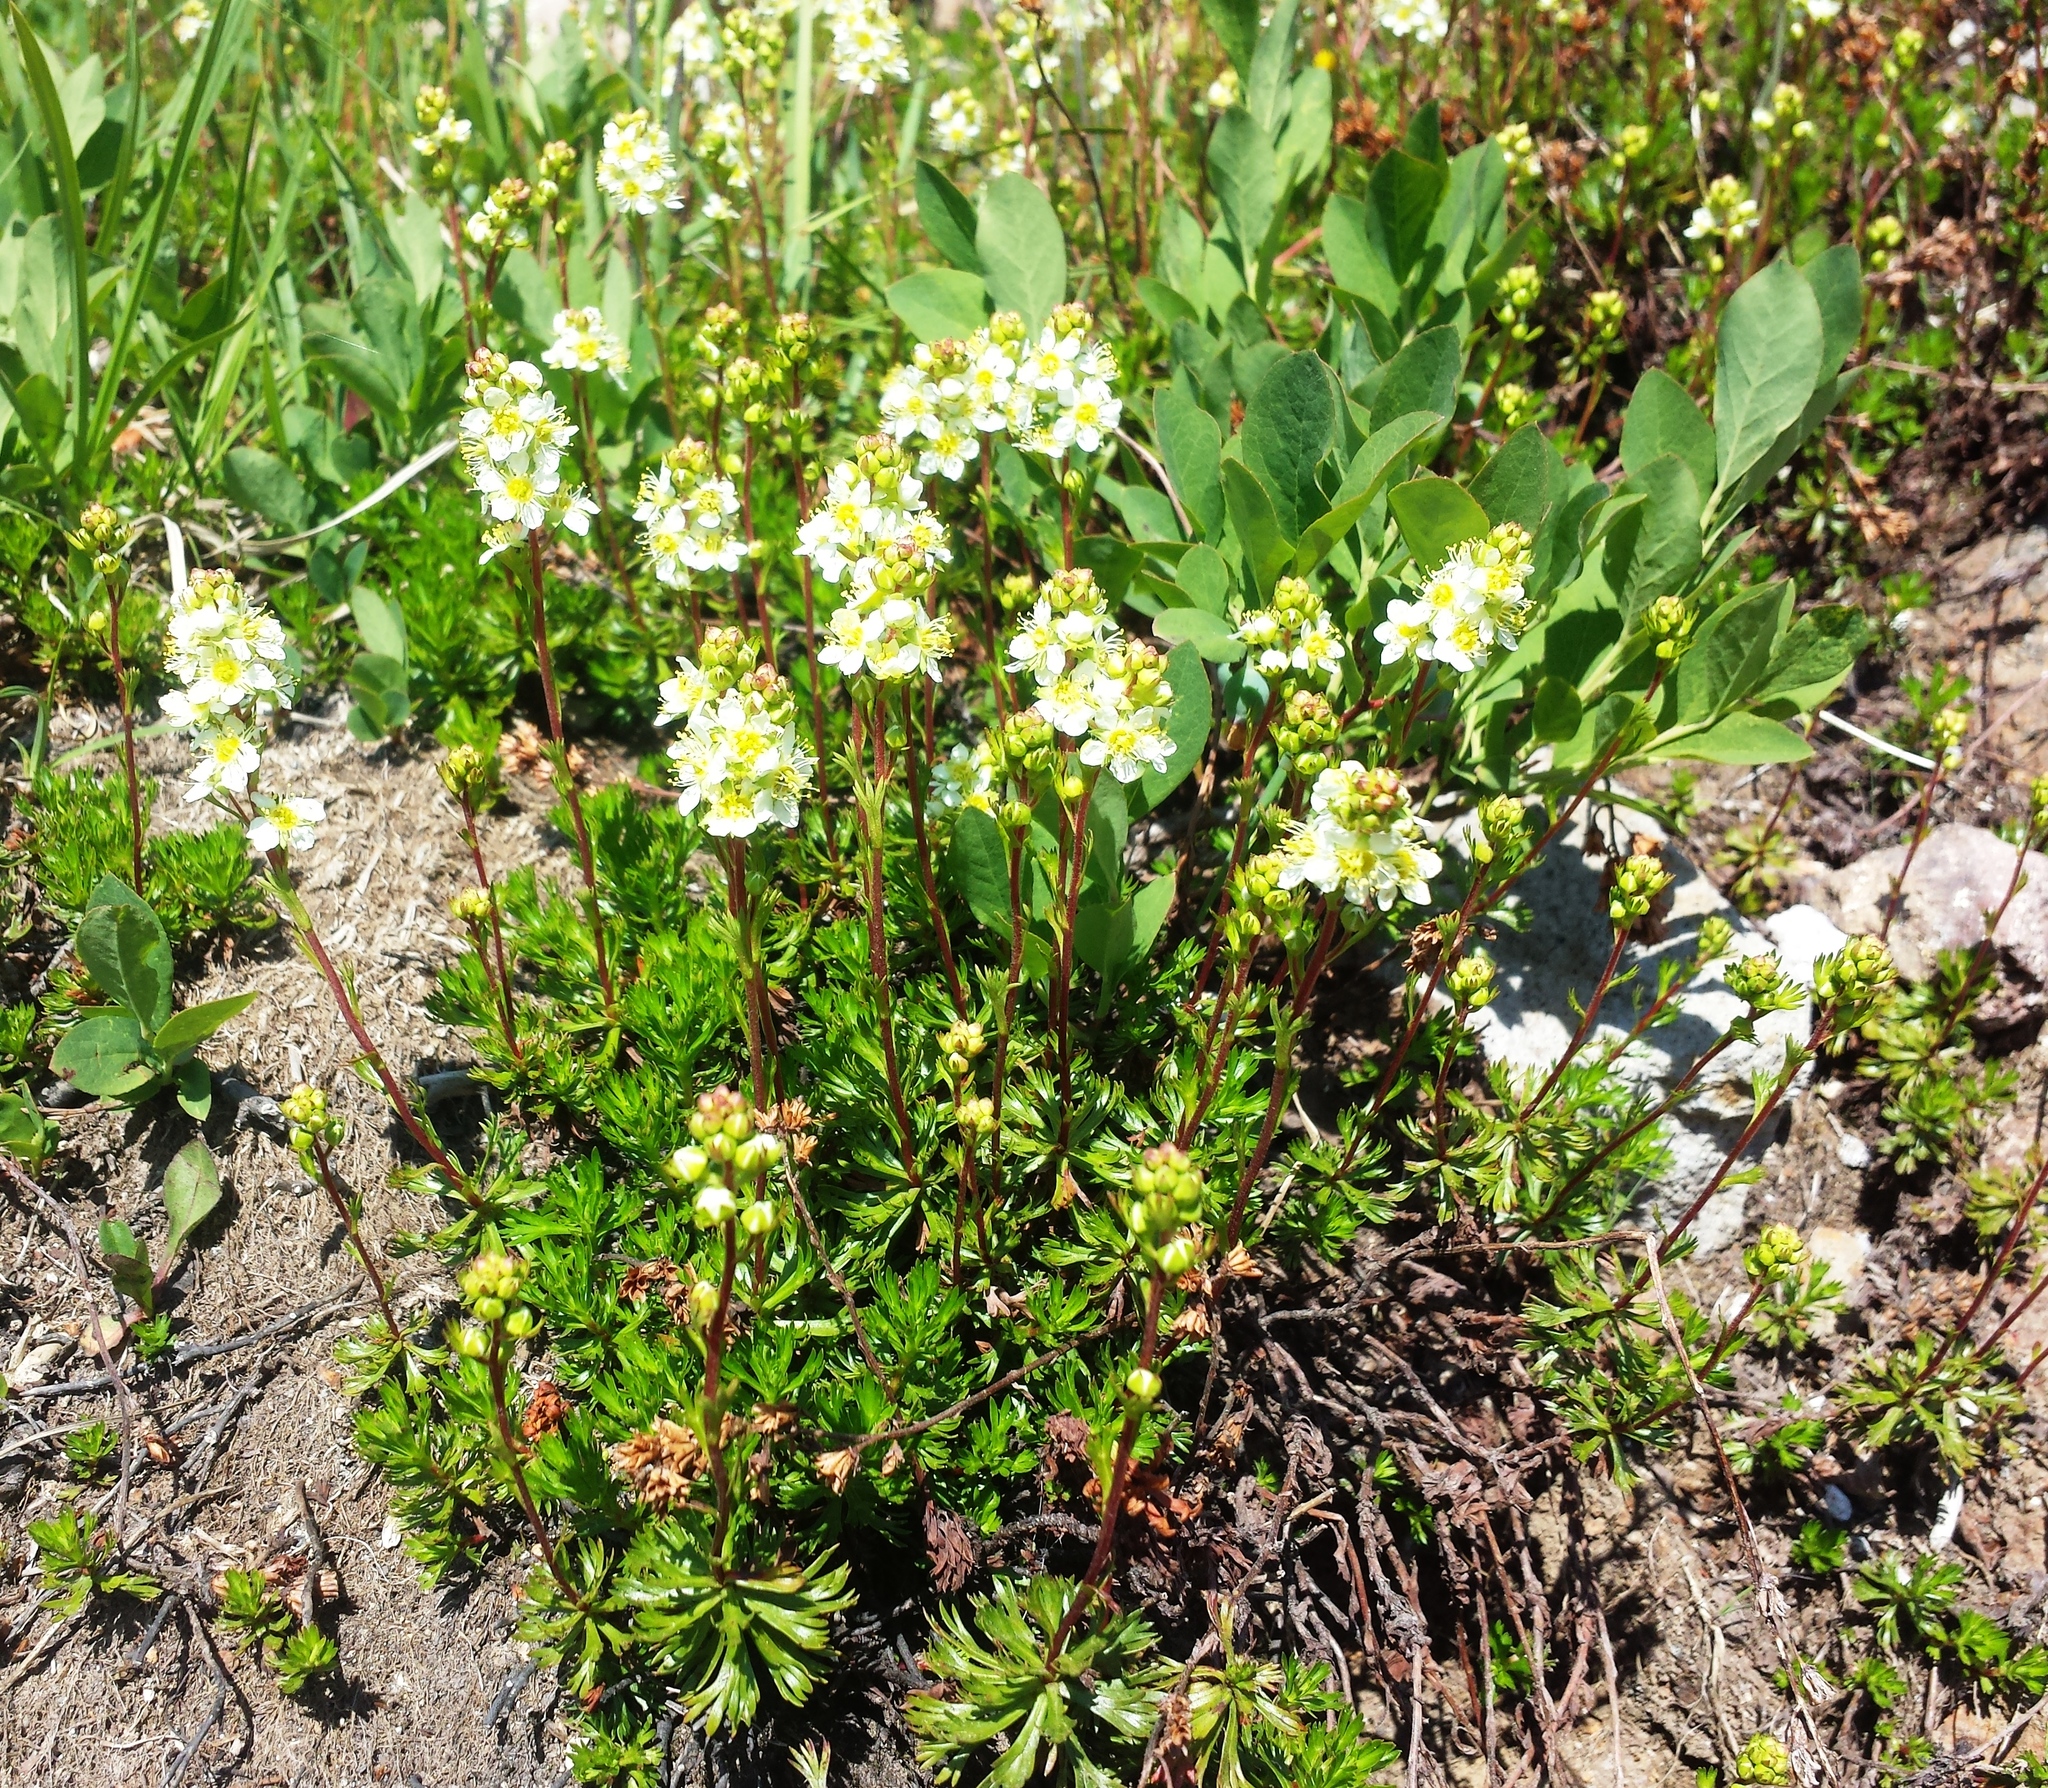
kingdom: Plantae
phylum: Tracheophyta
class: Magnoliopsida
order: Rosales
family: Rosaceae
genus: Luetkea
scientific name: Luetkea pectinata
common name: Partridgefoot
